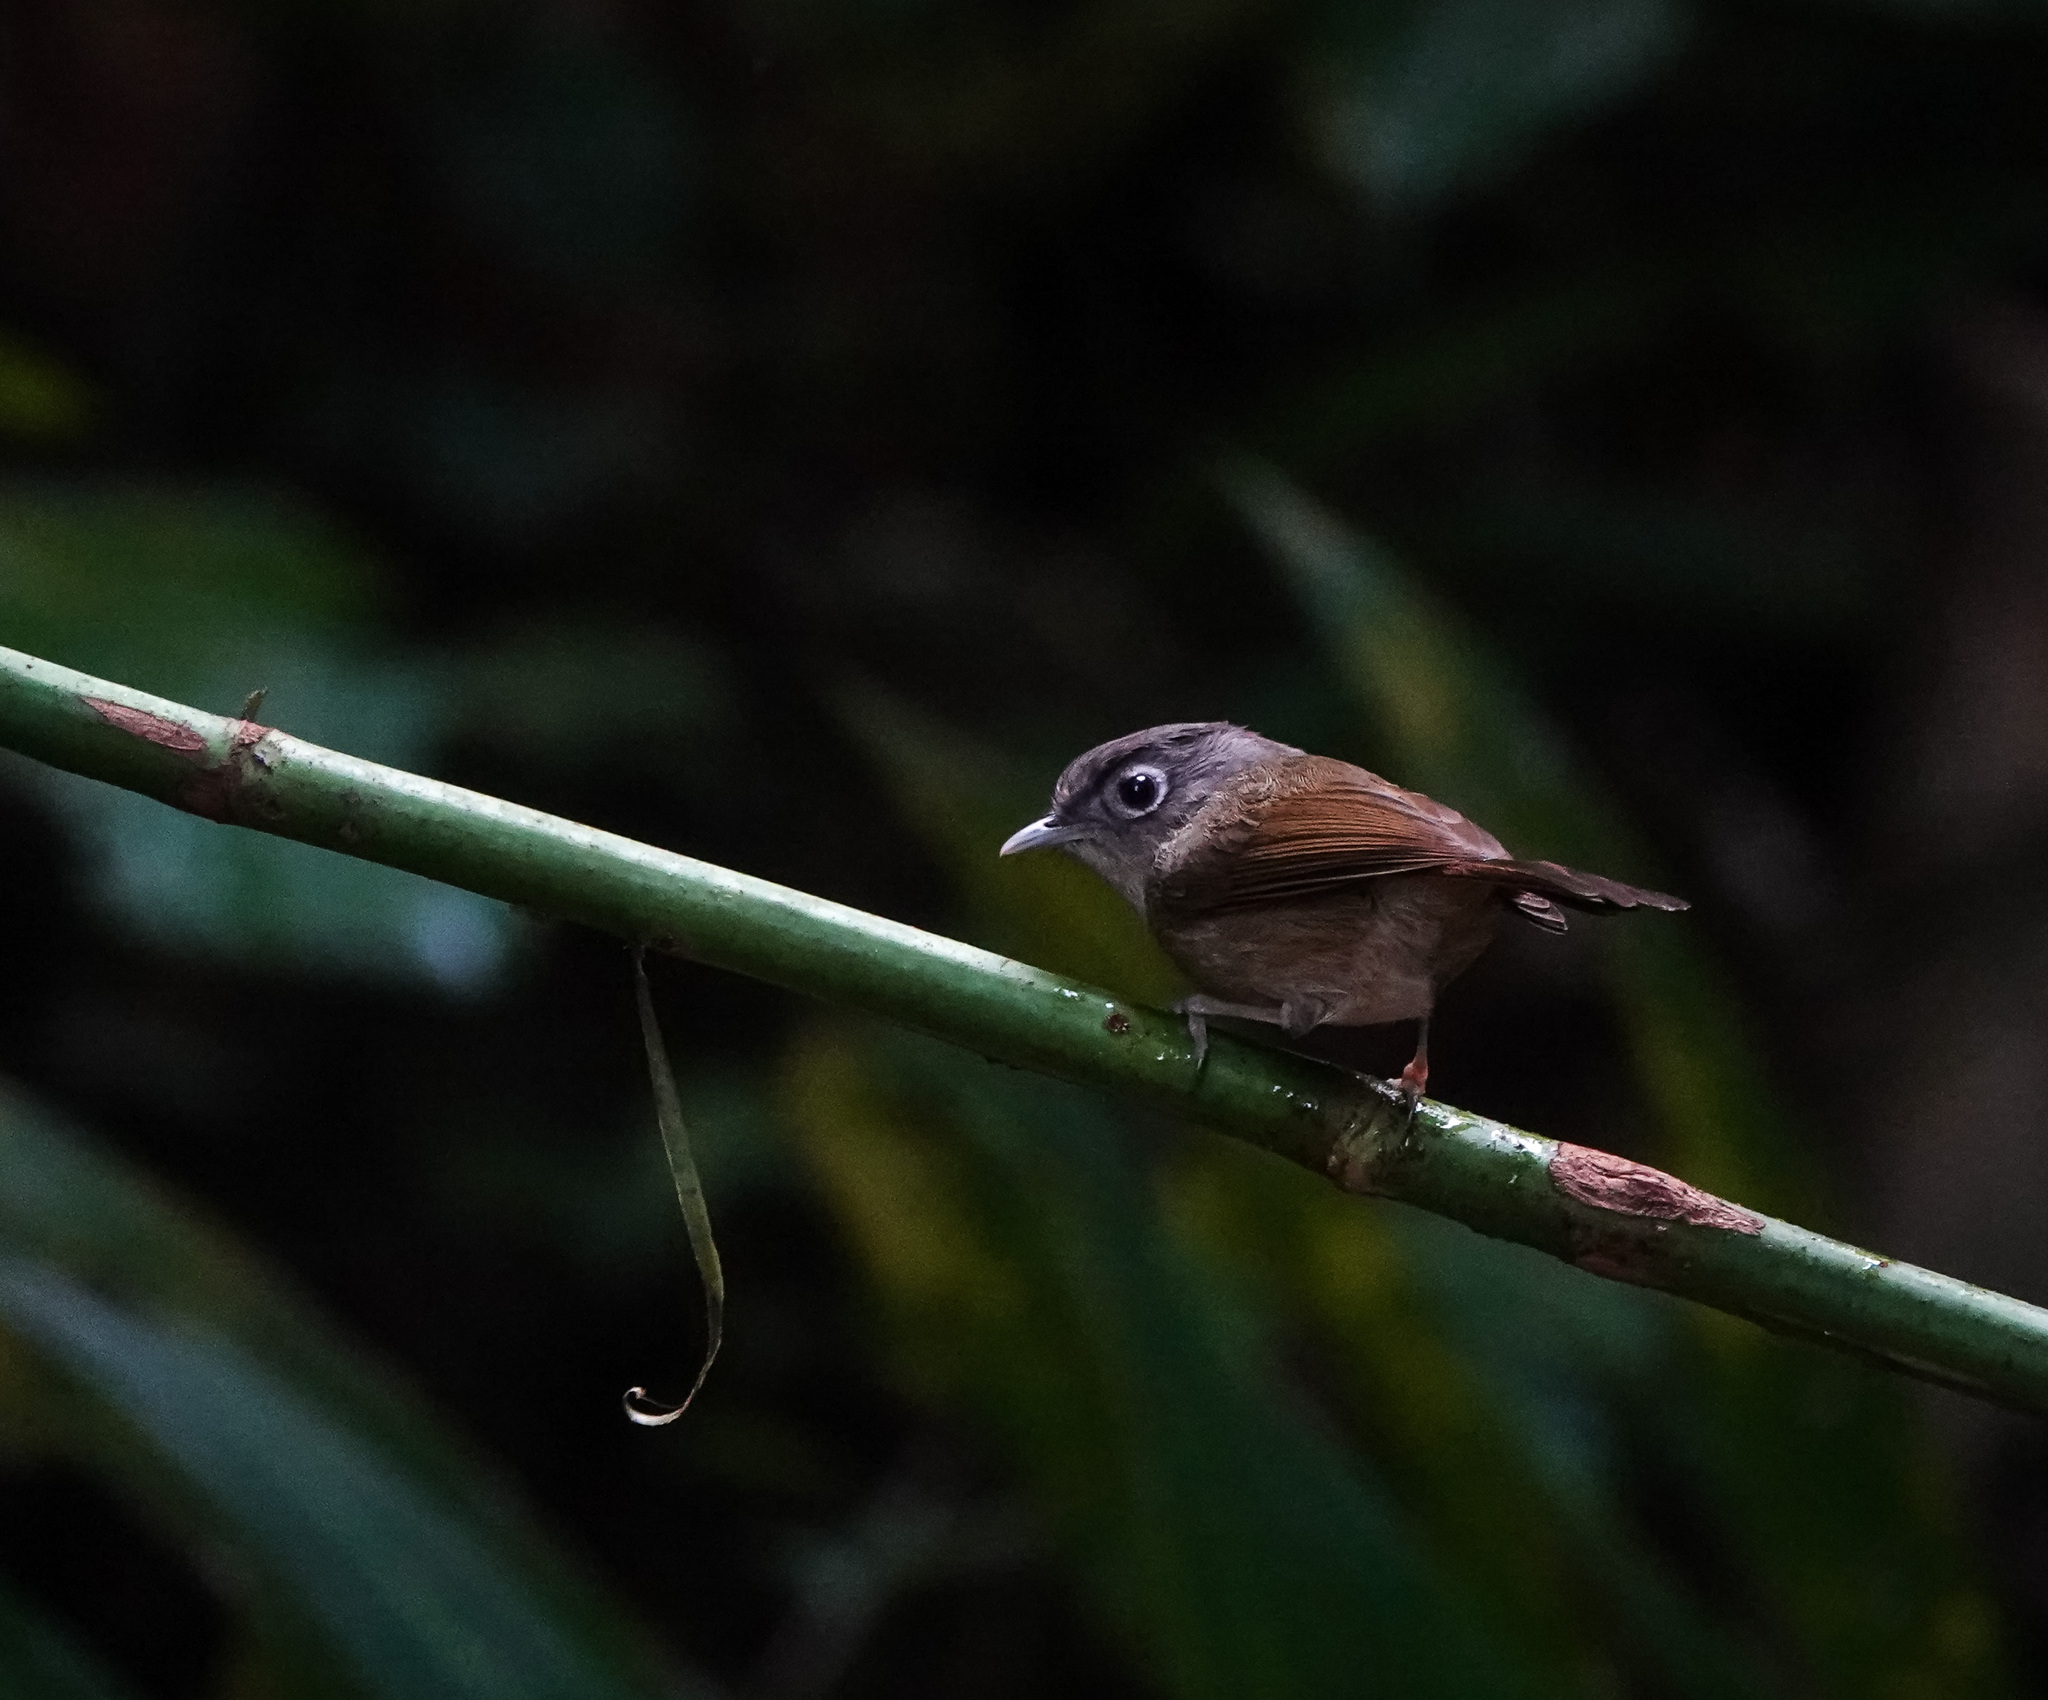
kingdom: Animalia
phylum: Chordata
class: Aves
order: Passeriformes
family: Pellorneidae
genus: Alcippe
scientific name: Alcippe nipalensis
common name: Nepal fulvetta
